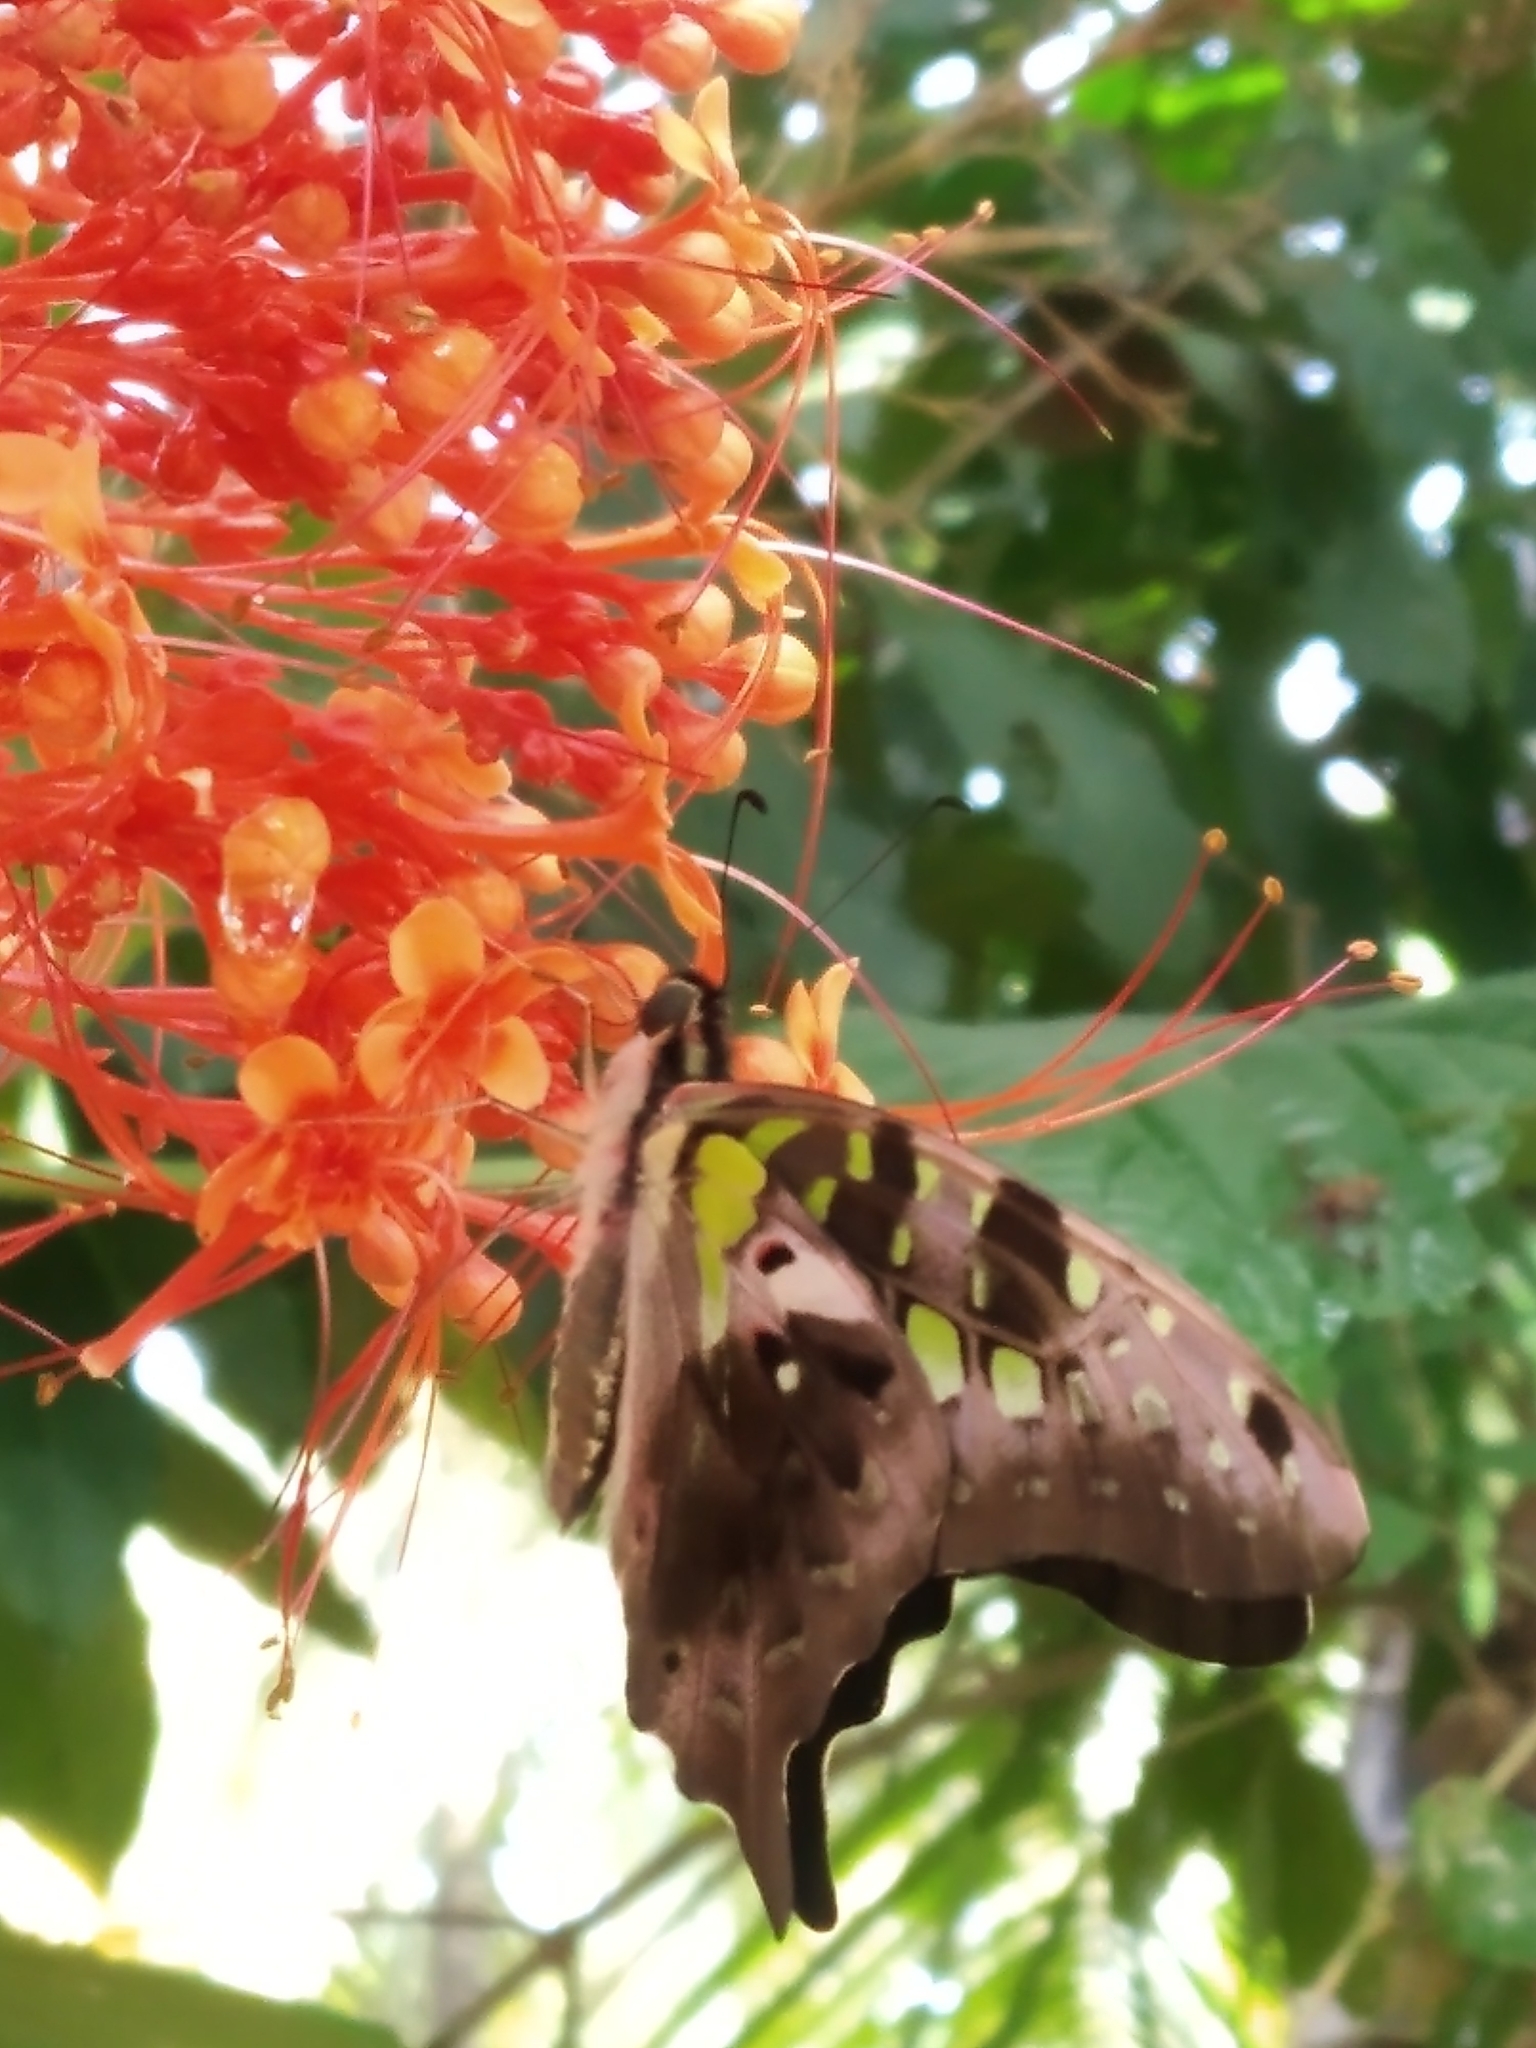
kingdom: Animalia
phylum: Arthropoda
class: Insecta
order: Lepidoptera
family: Papilionidae
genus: Graphium
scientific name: Graphium agamemnon
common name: Tailed jay
